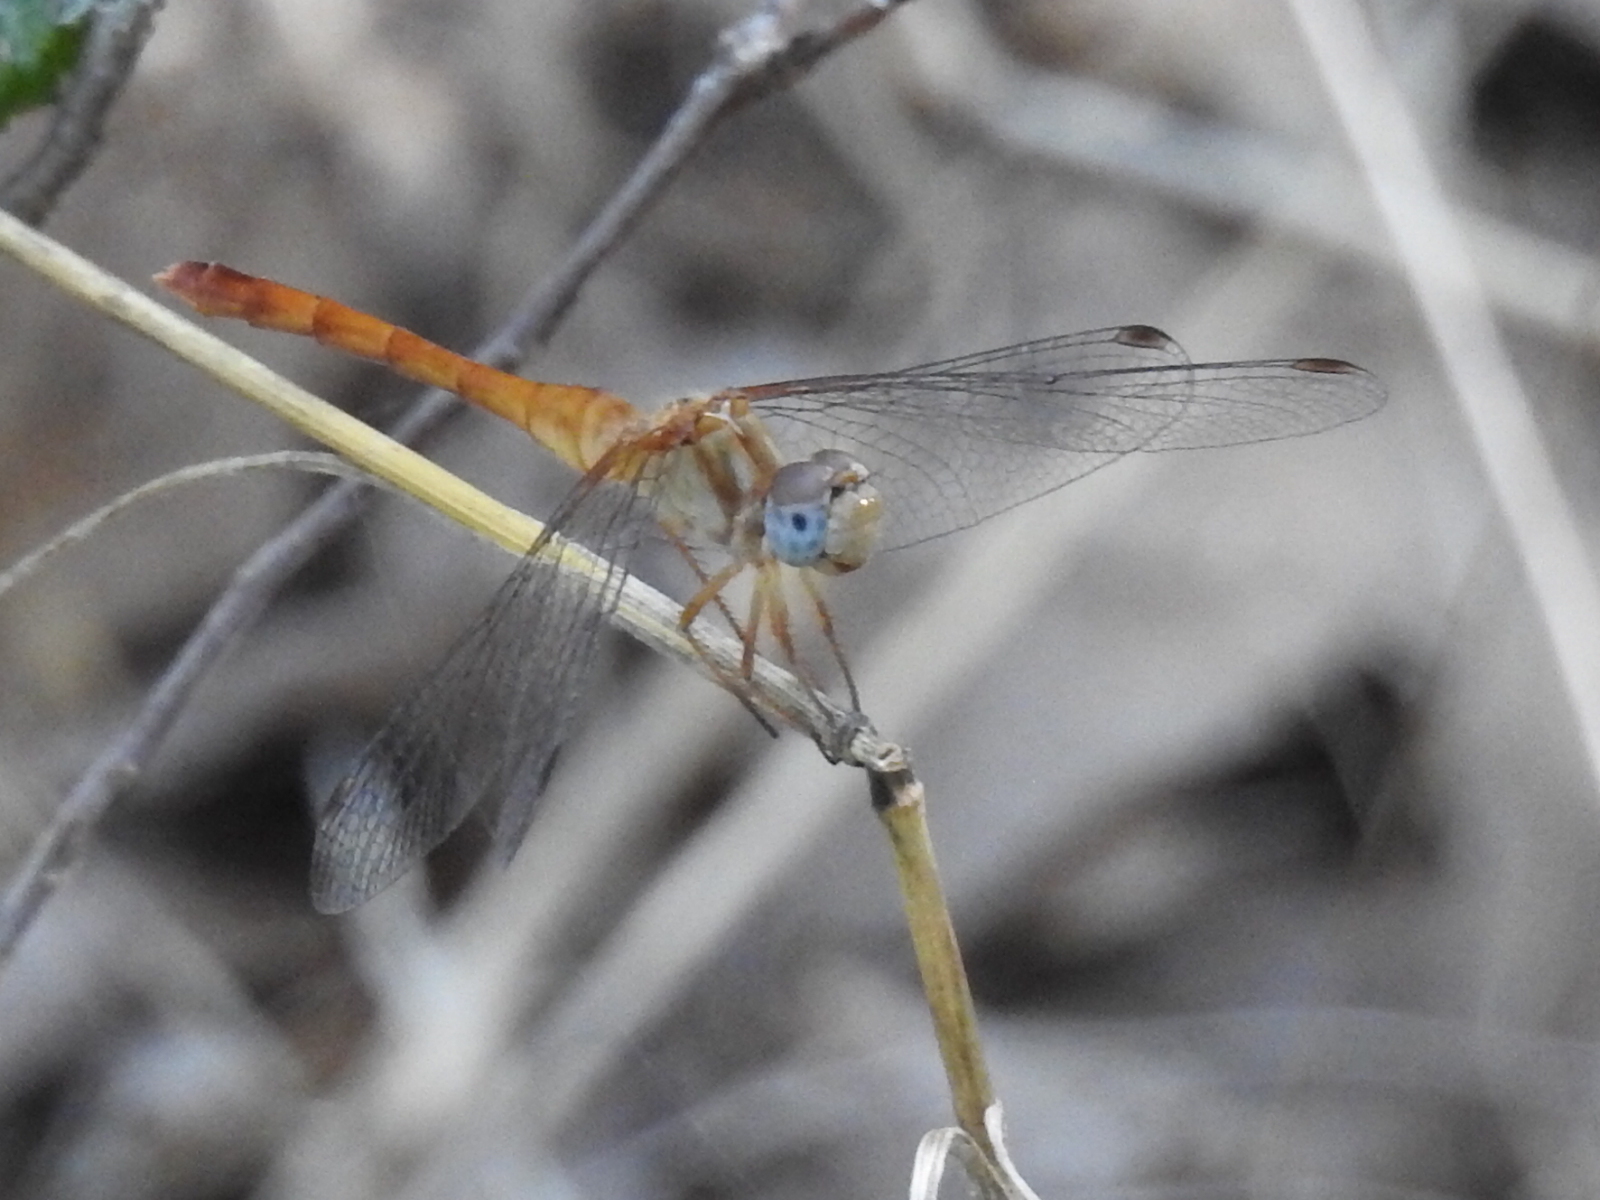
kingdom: Animalia
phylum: Arthropoda
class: Insecta
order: Odonata
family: Libellulidae
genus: Sympetrum
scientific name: Sympetrum vicinum
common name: Autumn meadowhawk
